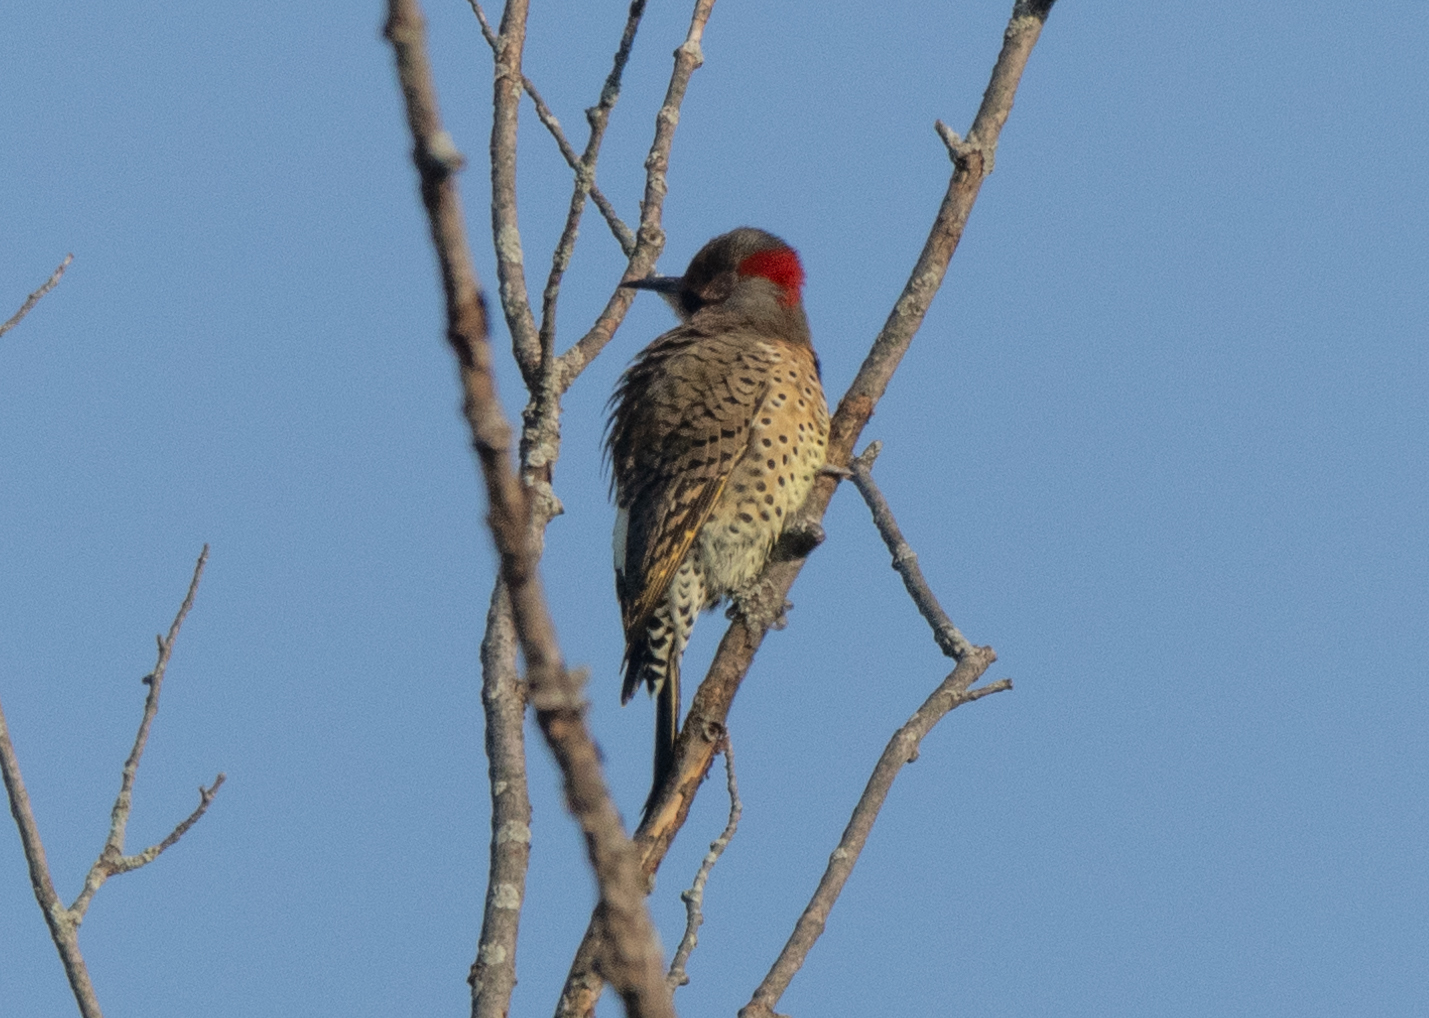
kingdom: Animalia
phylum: Chordata
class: Aves
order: Piciformes
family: Picidae
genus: Colaptes
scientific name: Colaptes auratus
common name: Northern flicker
